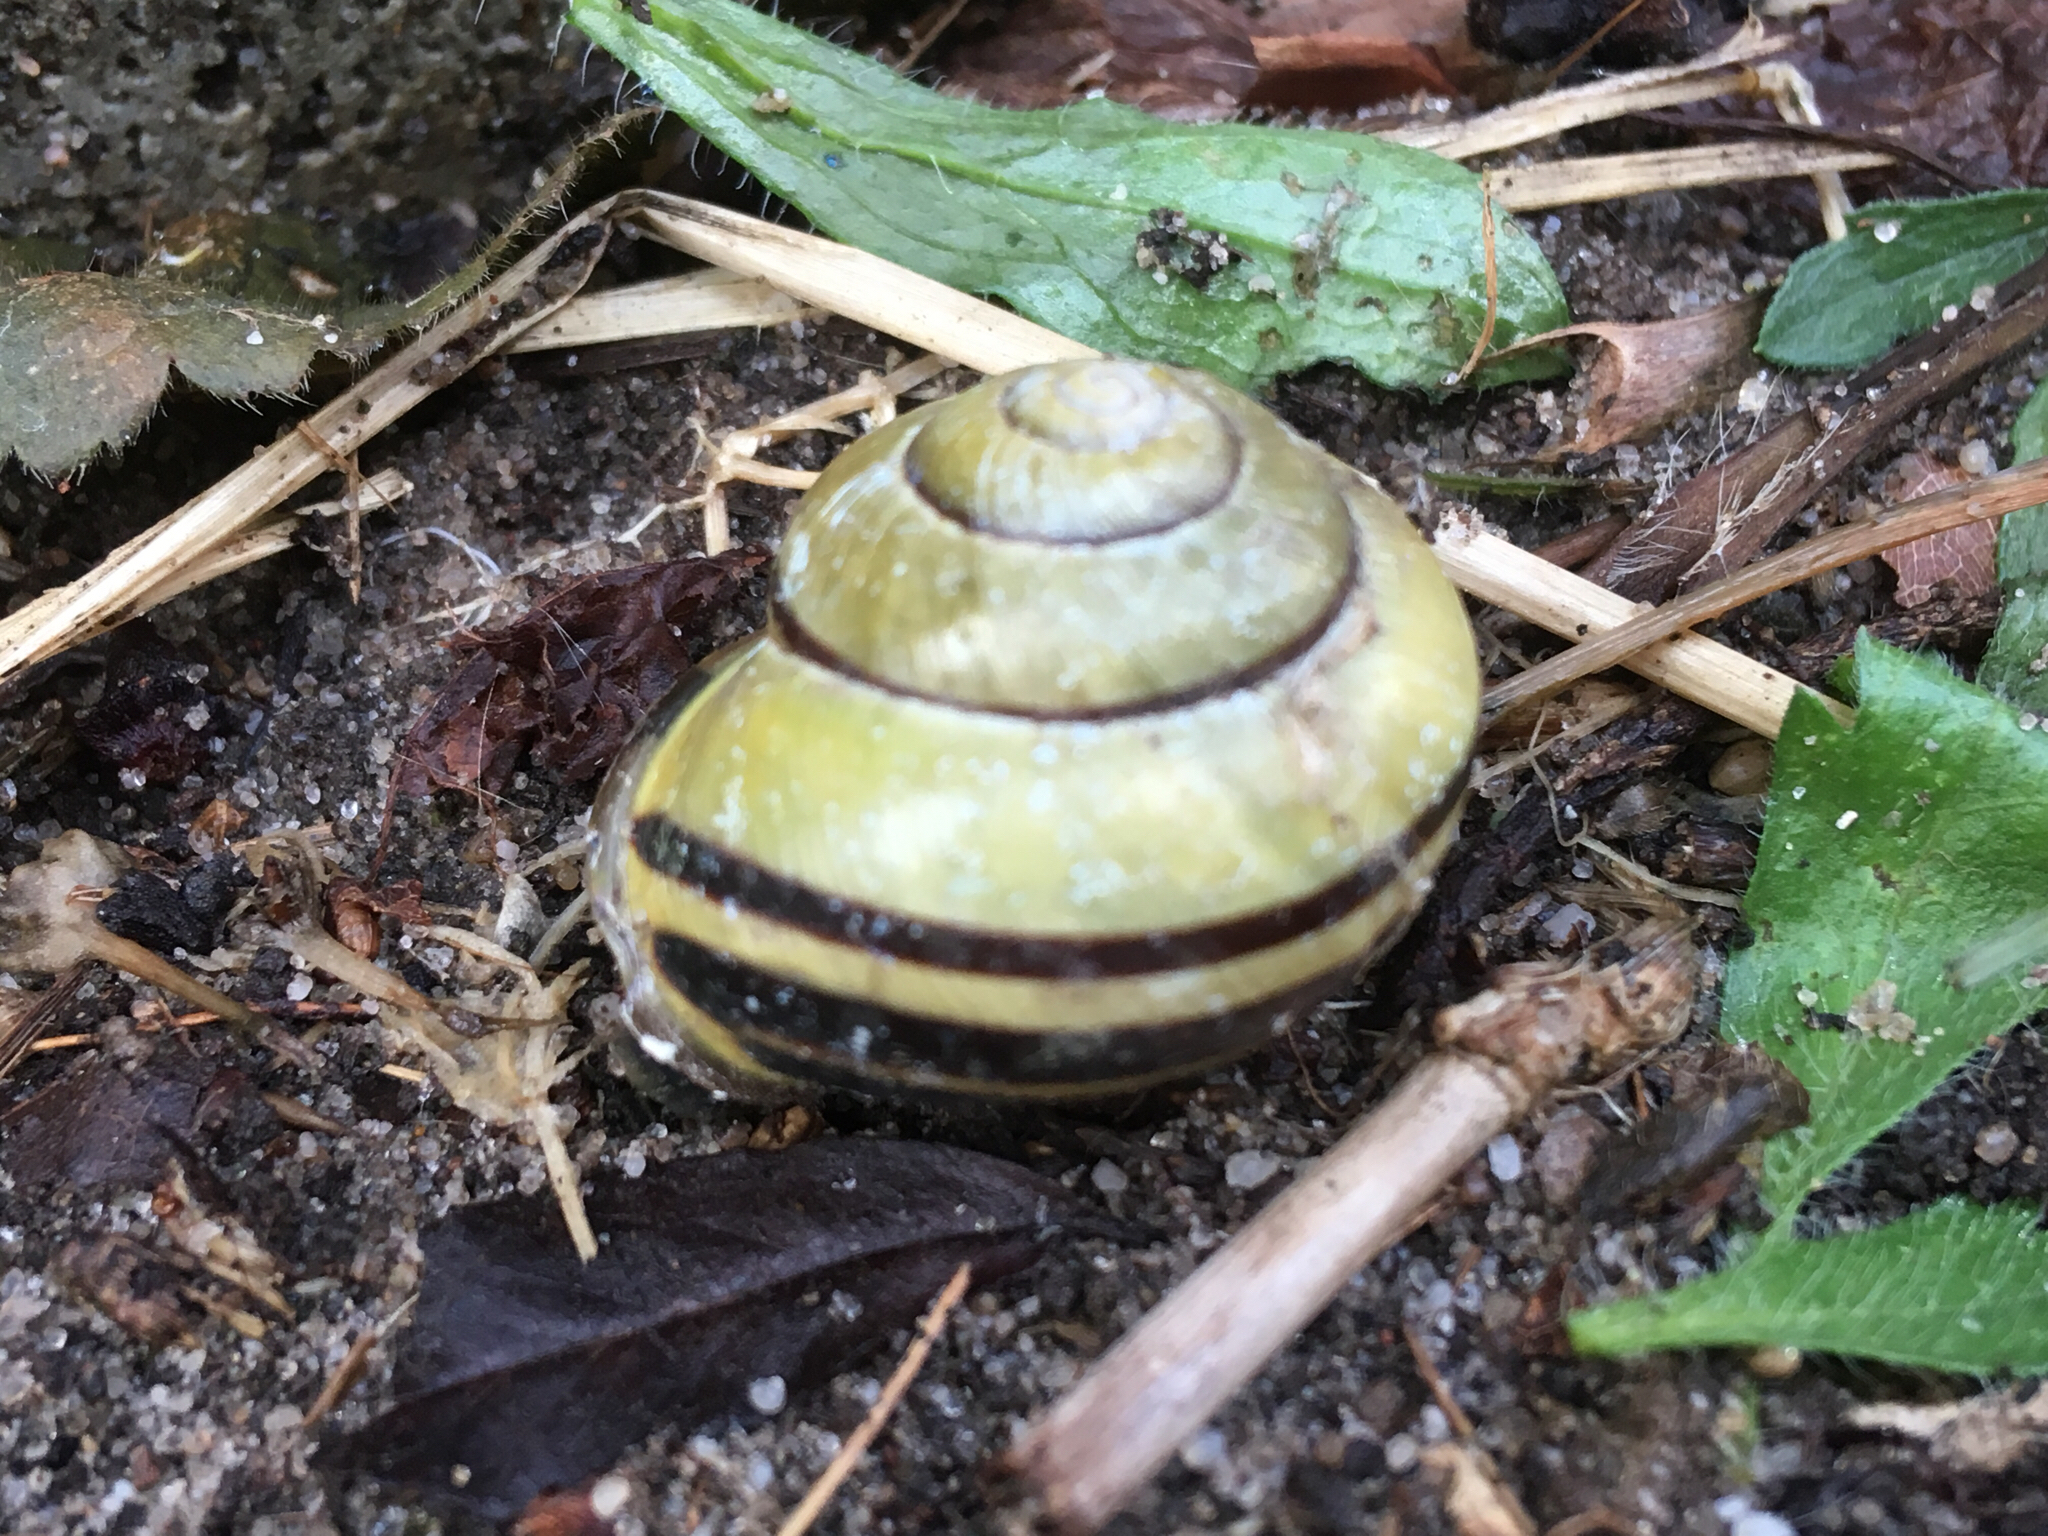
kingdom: Animalia
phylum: Mollusca
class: Gastropoda
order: Stylommatophora
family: Helicidae
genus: Cepaea
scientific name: Cepaea nemoralis
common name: Grovesnail
